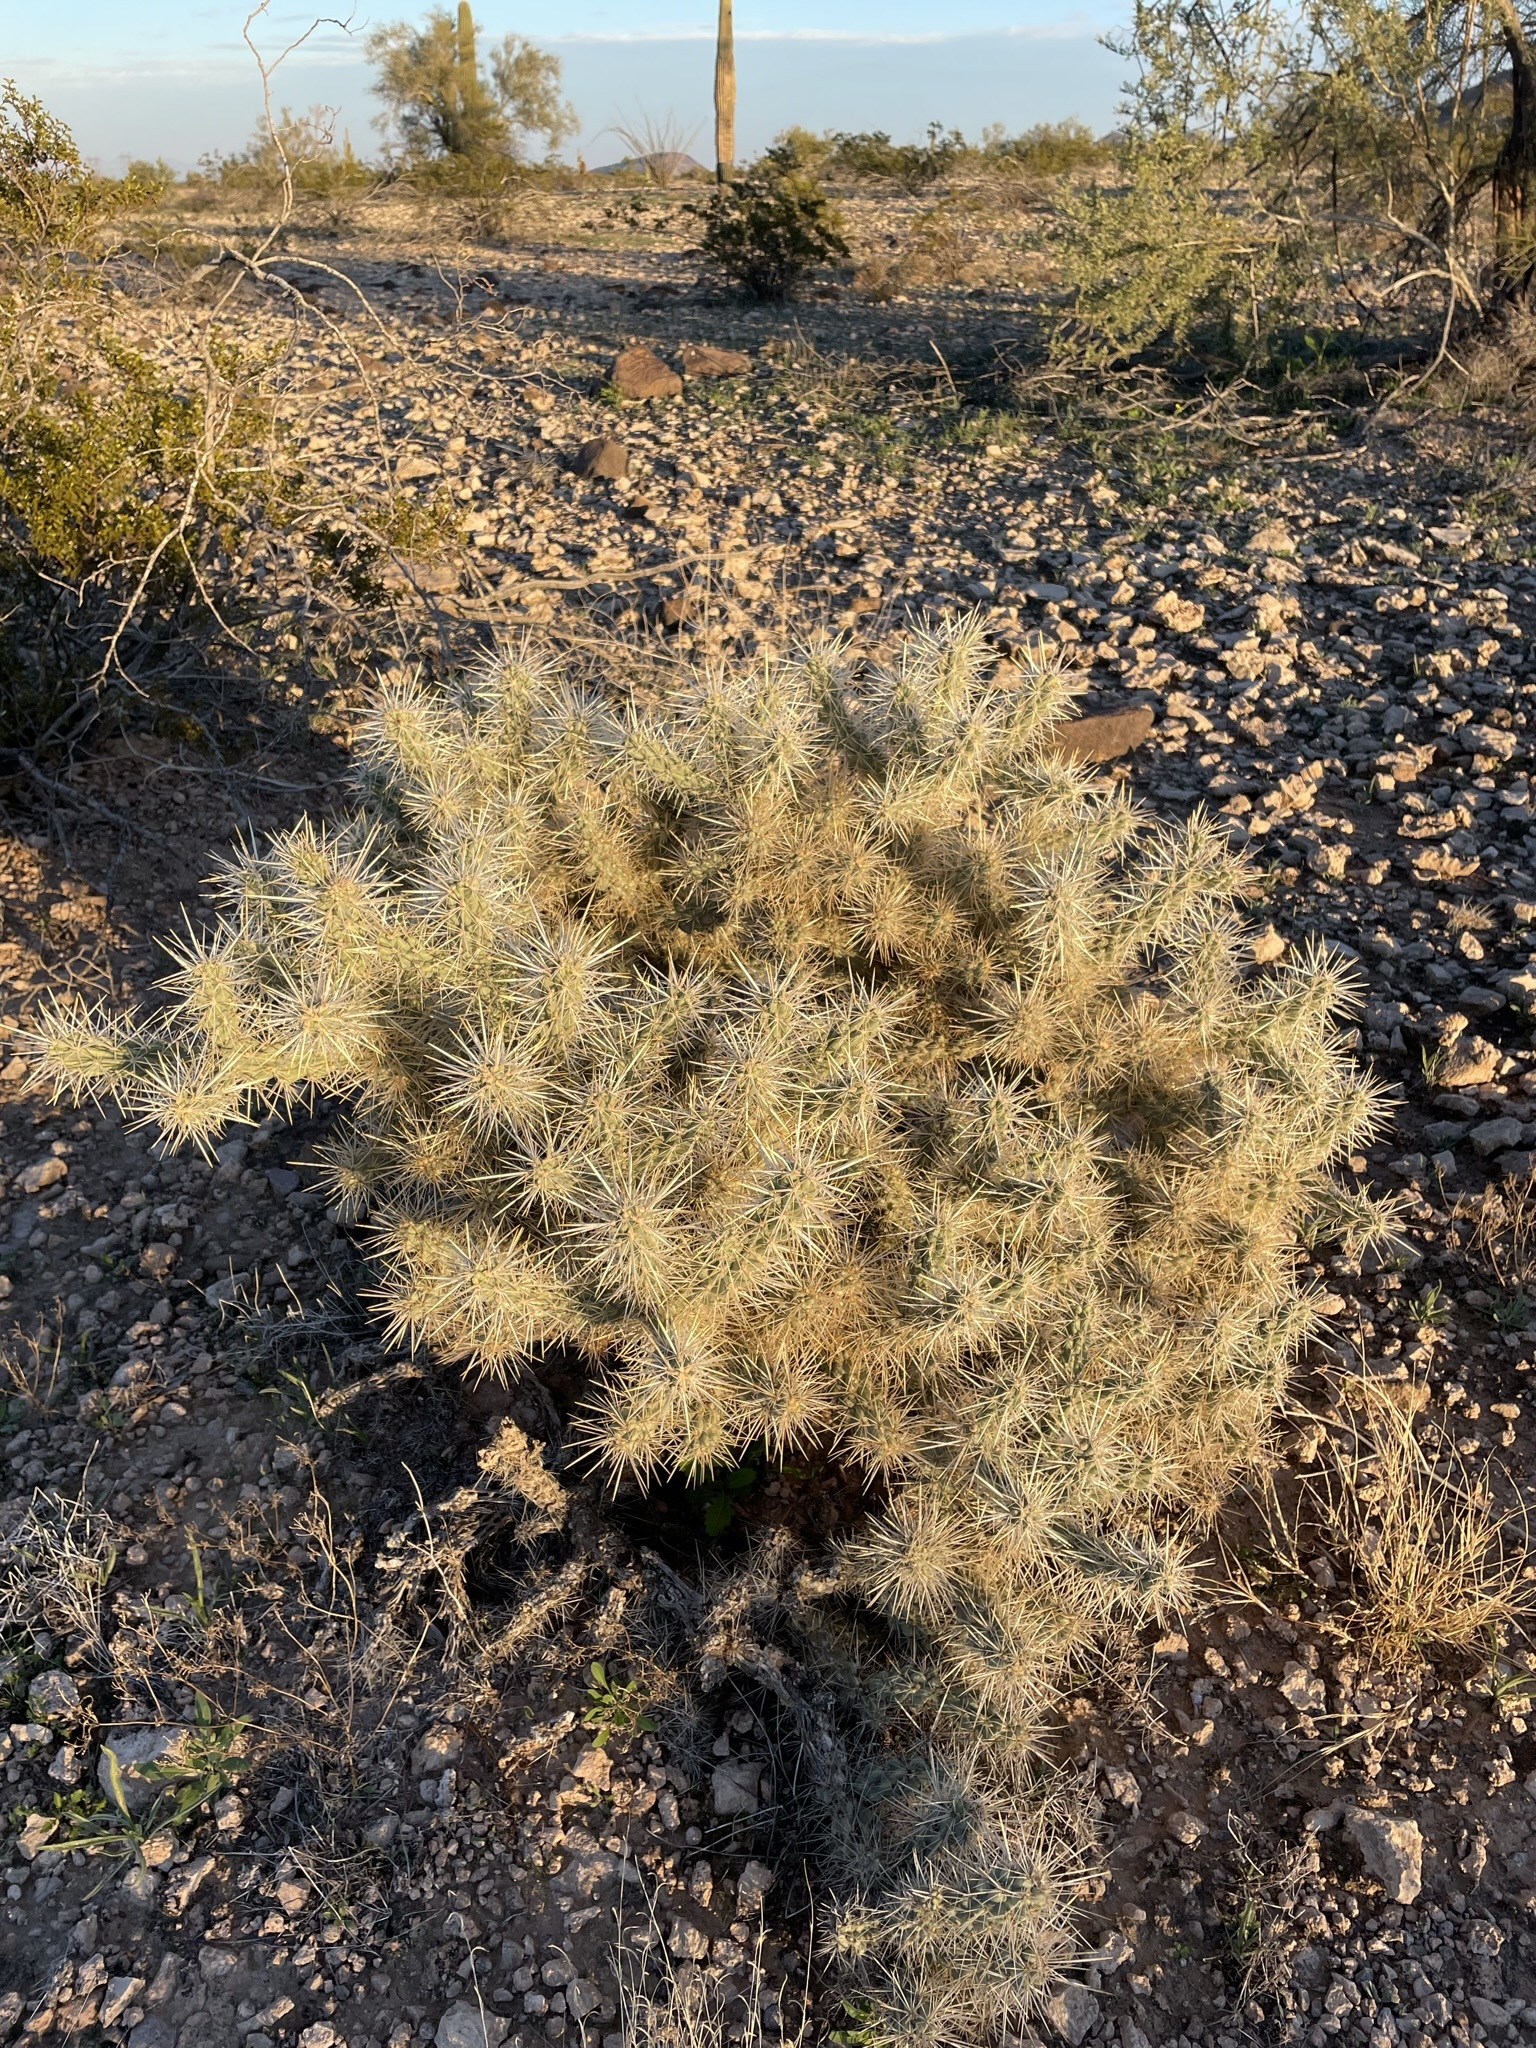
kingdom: Plantae
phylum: Tracheophyta
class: Magnoliopsida
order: Caryophyllales
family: Cactaceae
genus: Cylindropuntia
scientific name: Cylindropuntia fulgida
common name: Jumping cholla
